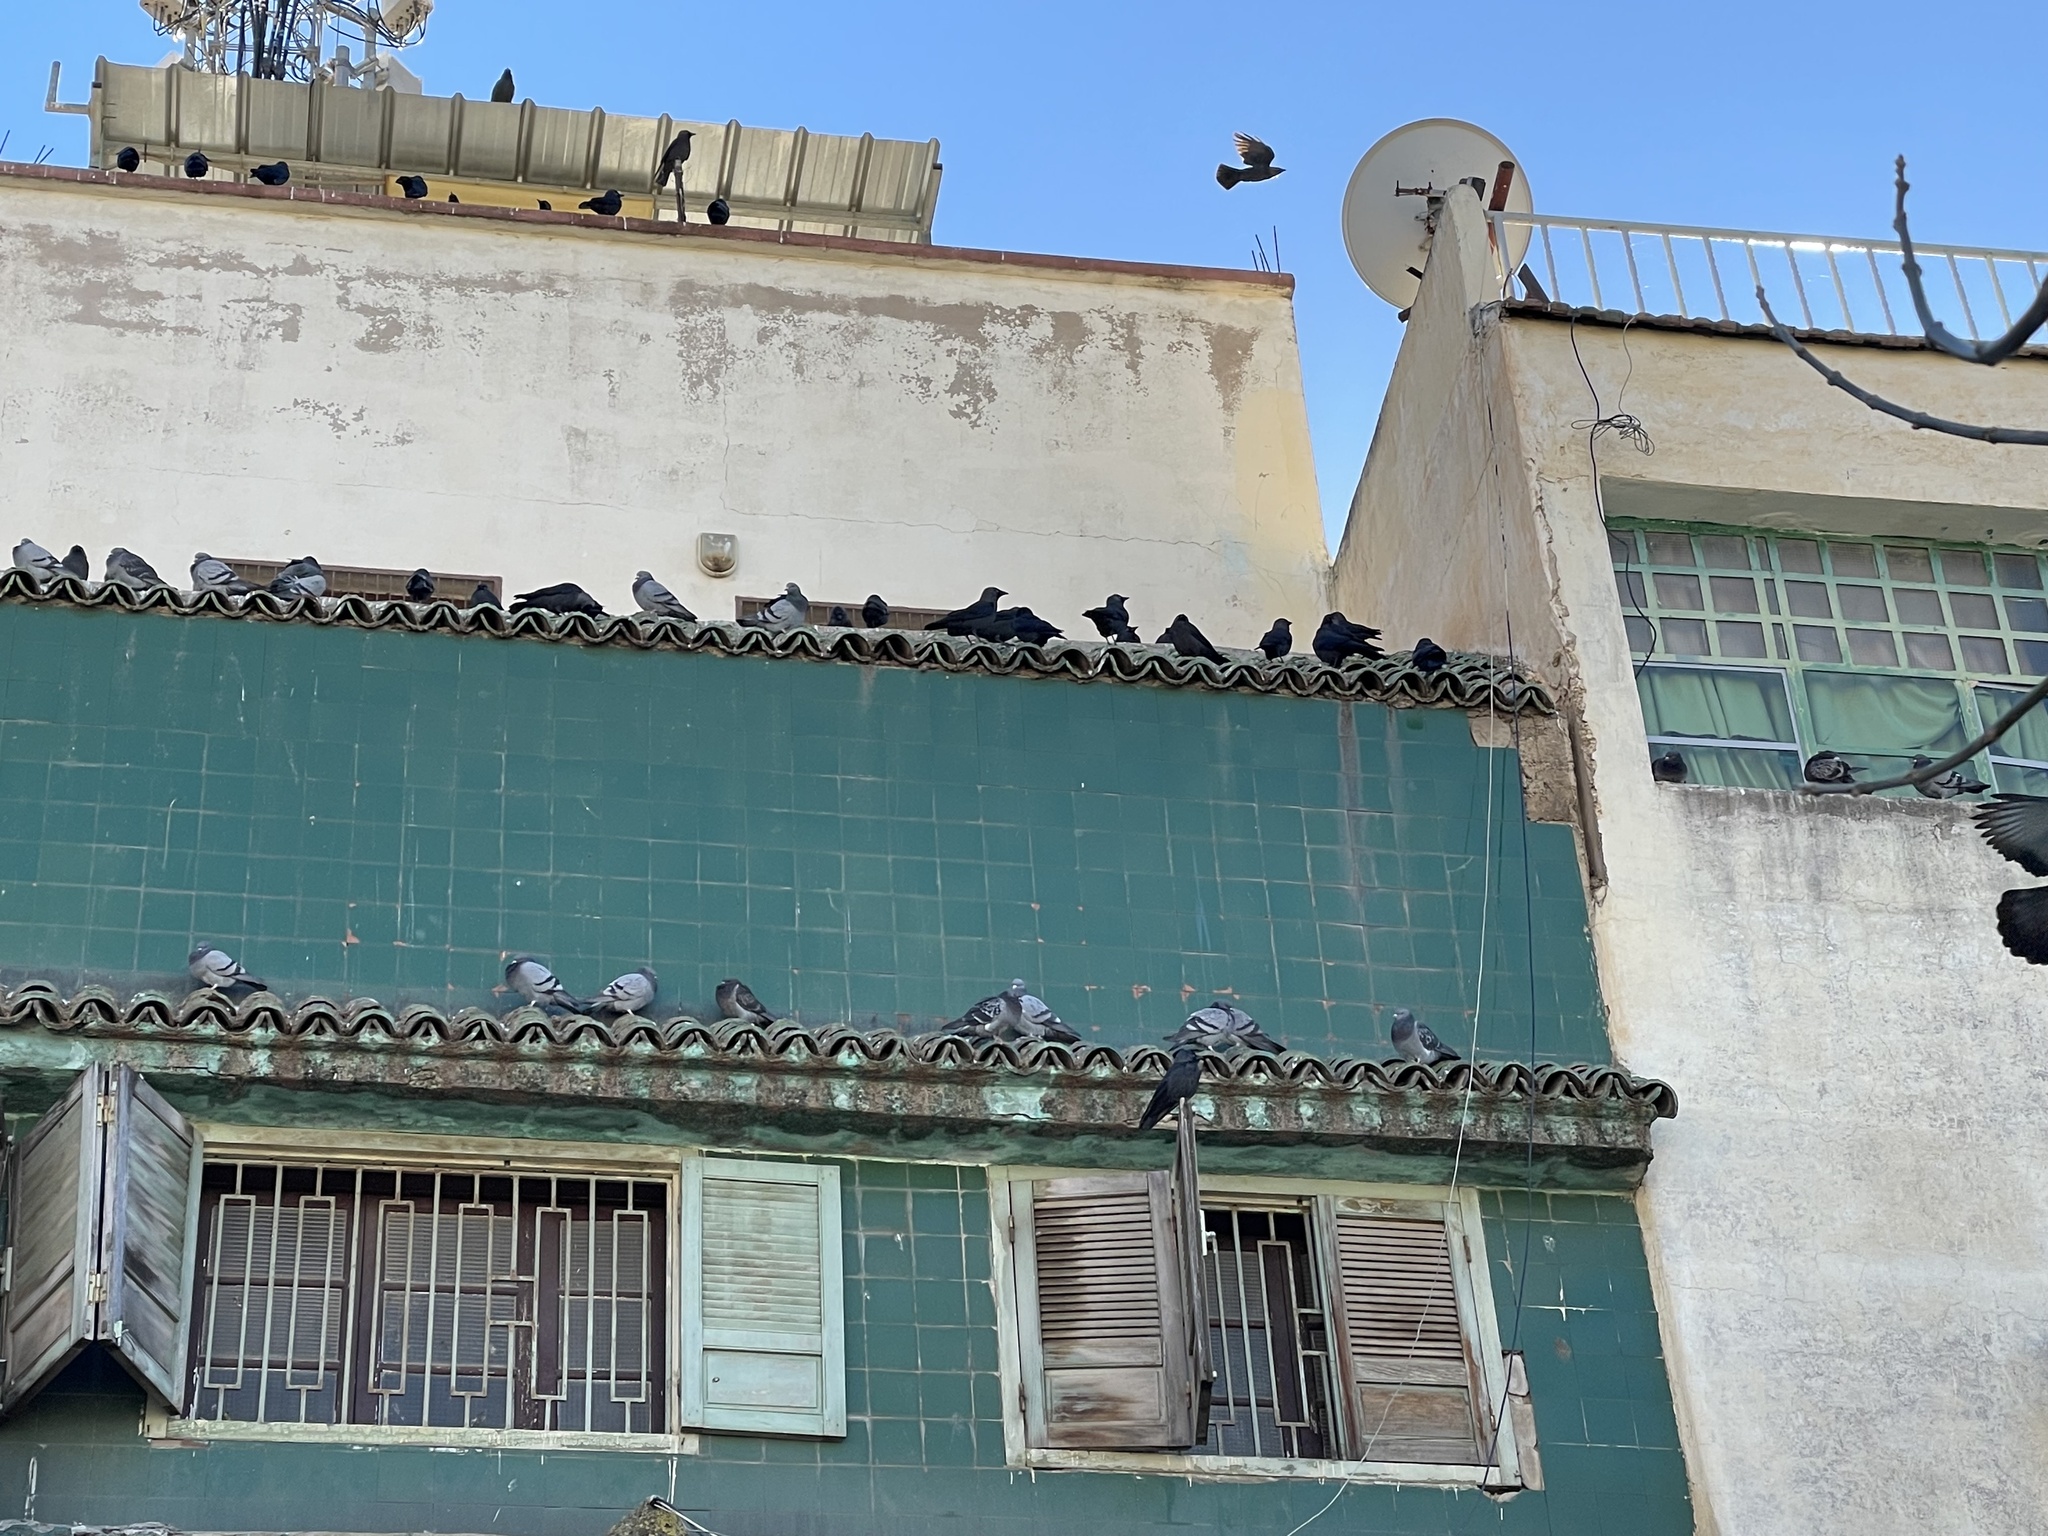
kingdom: Animalia
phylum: Chordata
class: Aves
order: Passeriformes
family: Corvidae
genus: Coloeus
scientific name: Coloeus monedula
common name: Western jackdaw
